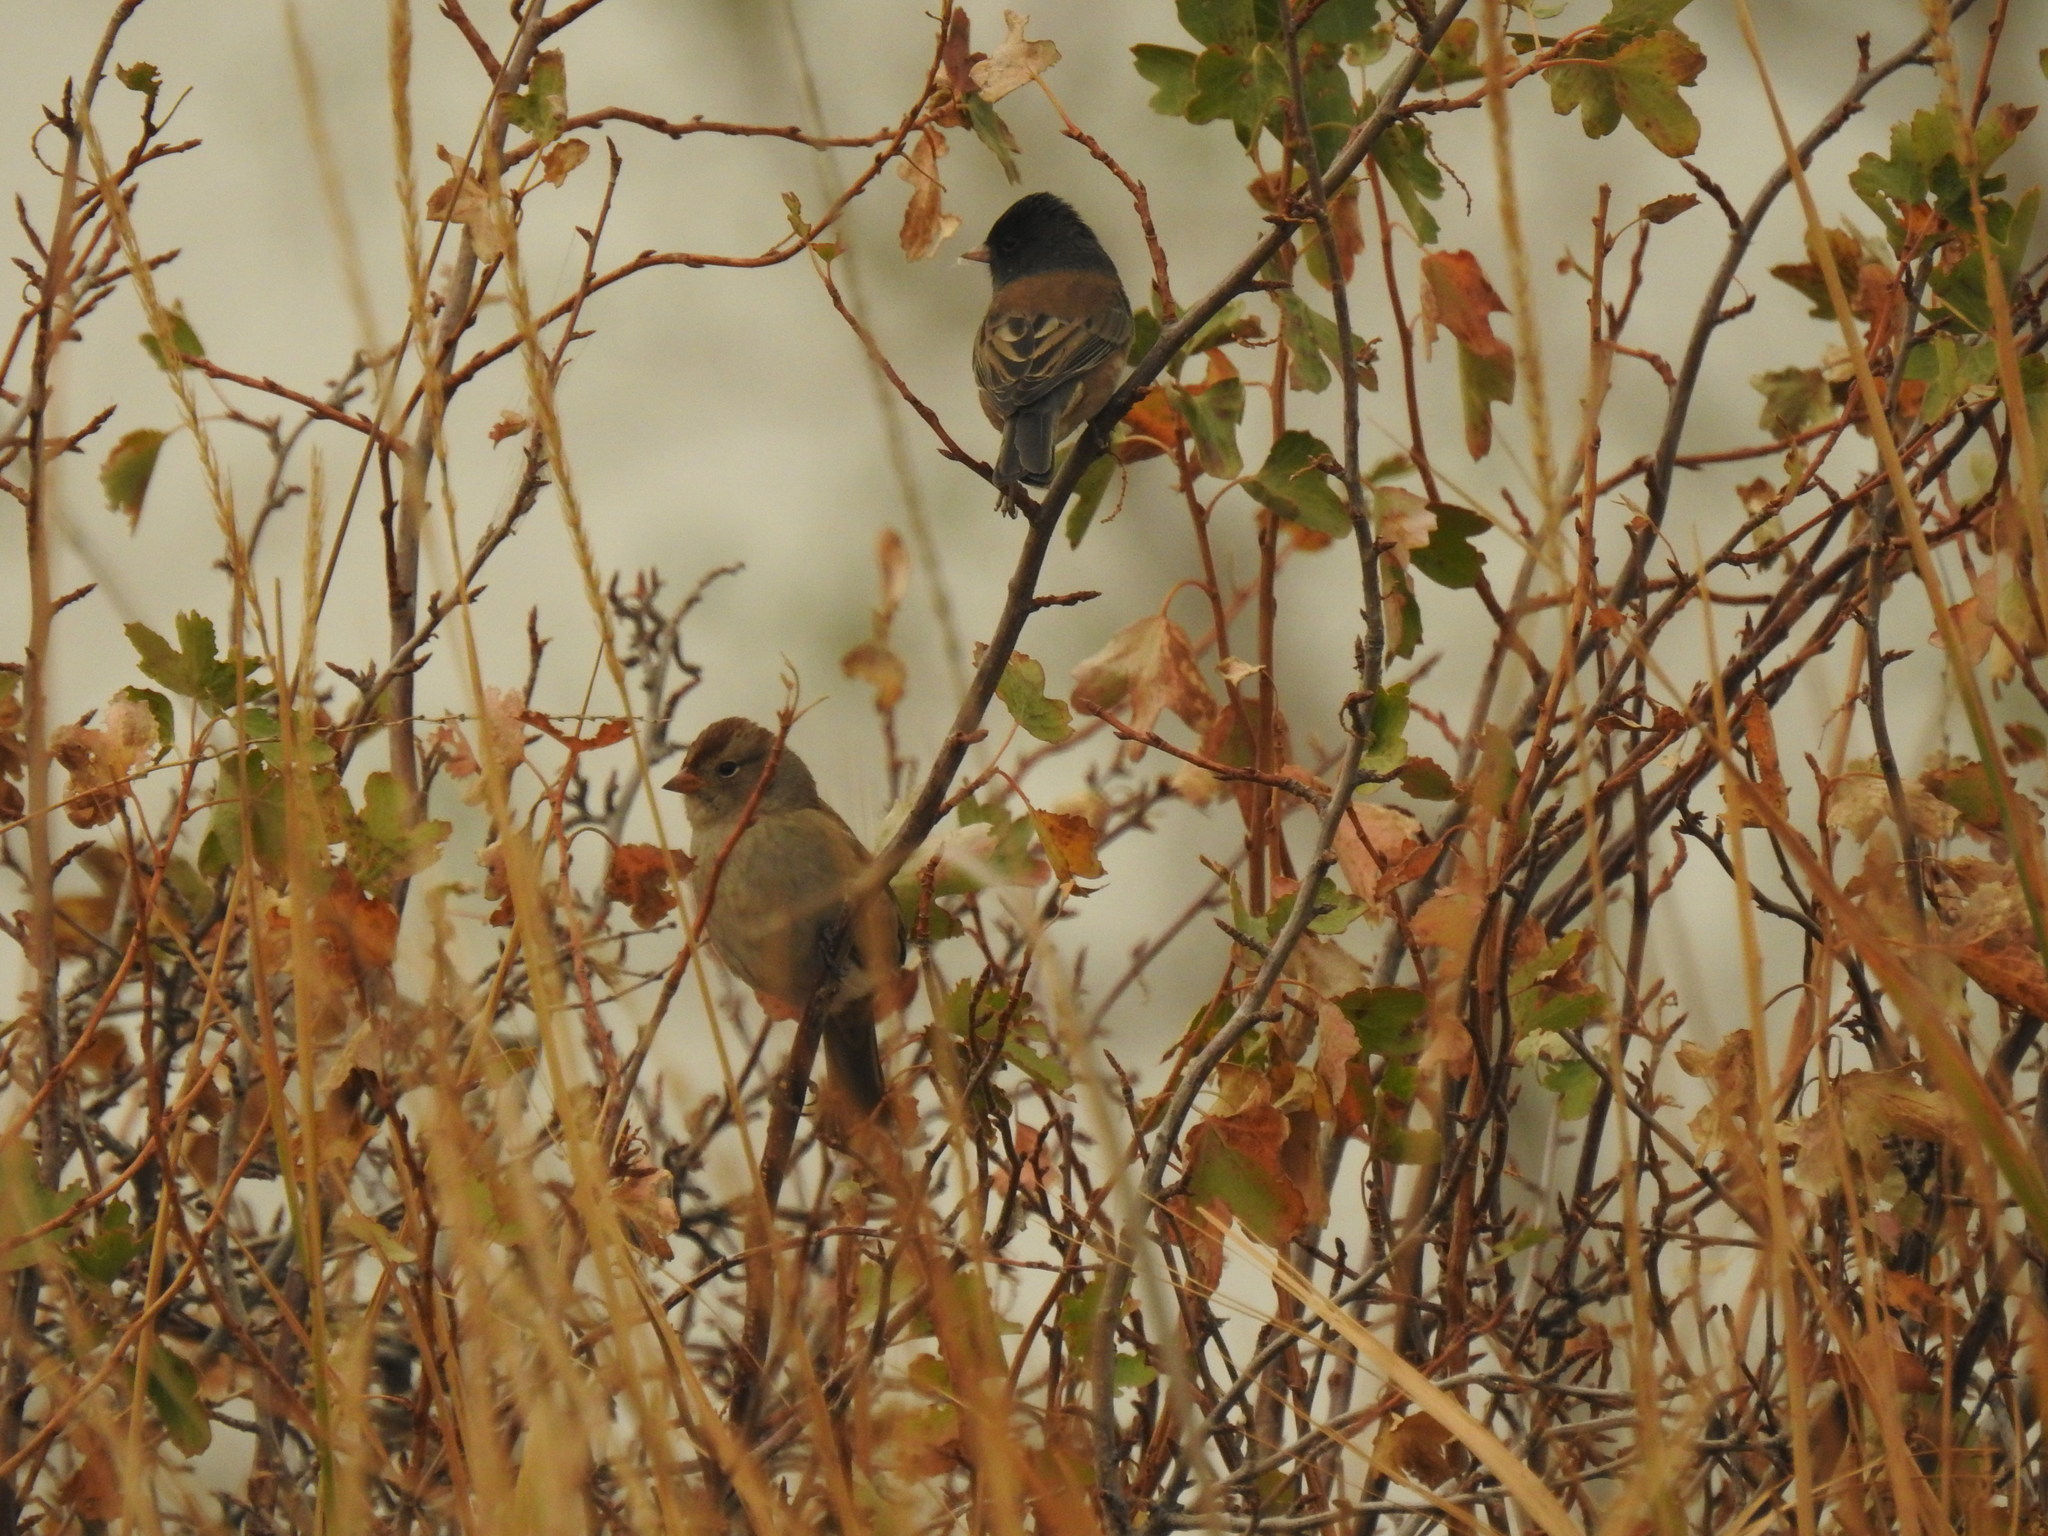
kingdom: Animalia
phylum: Chordata
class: Aves
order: Passeriformes
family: Passerellidae
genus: Junco
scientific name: Junco hyemalis
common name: Dark-eyed junco
